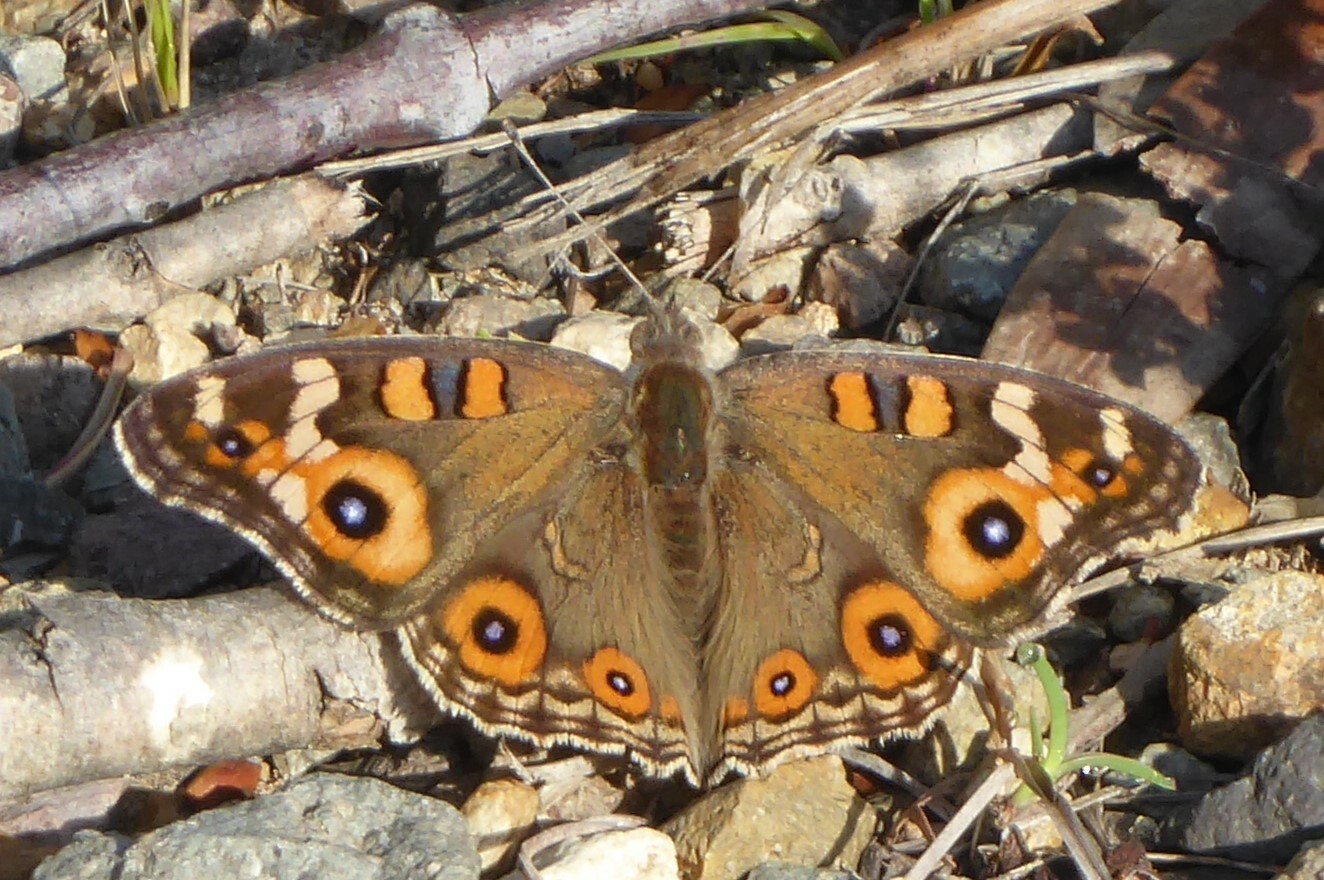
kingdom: Animalia
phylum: Arthropoda
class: Insecta
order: Lepidoptera
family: Nymphalidae
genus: Junonia
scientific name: Junonia villida
